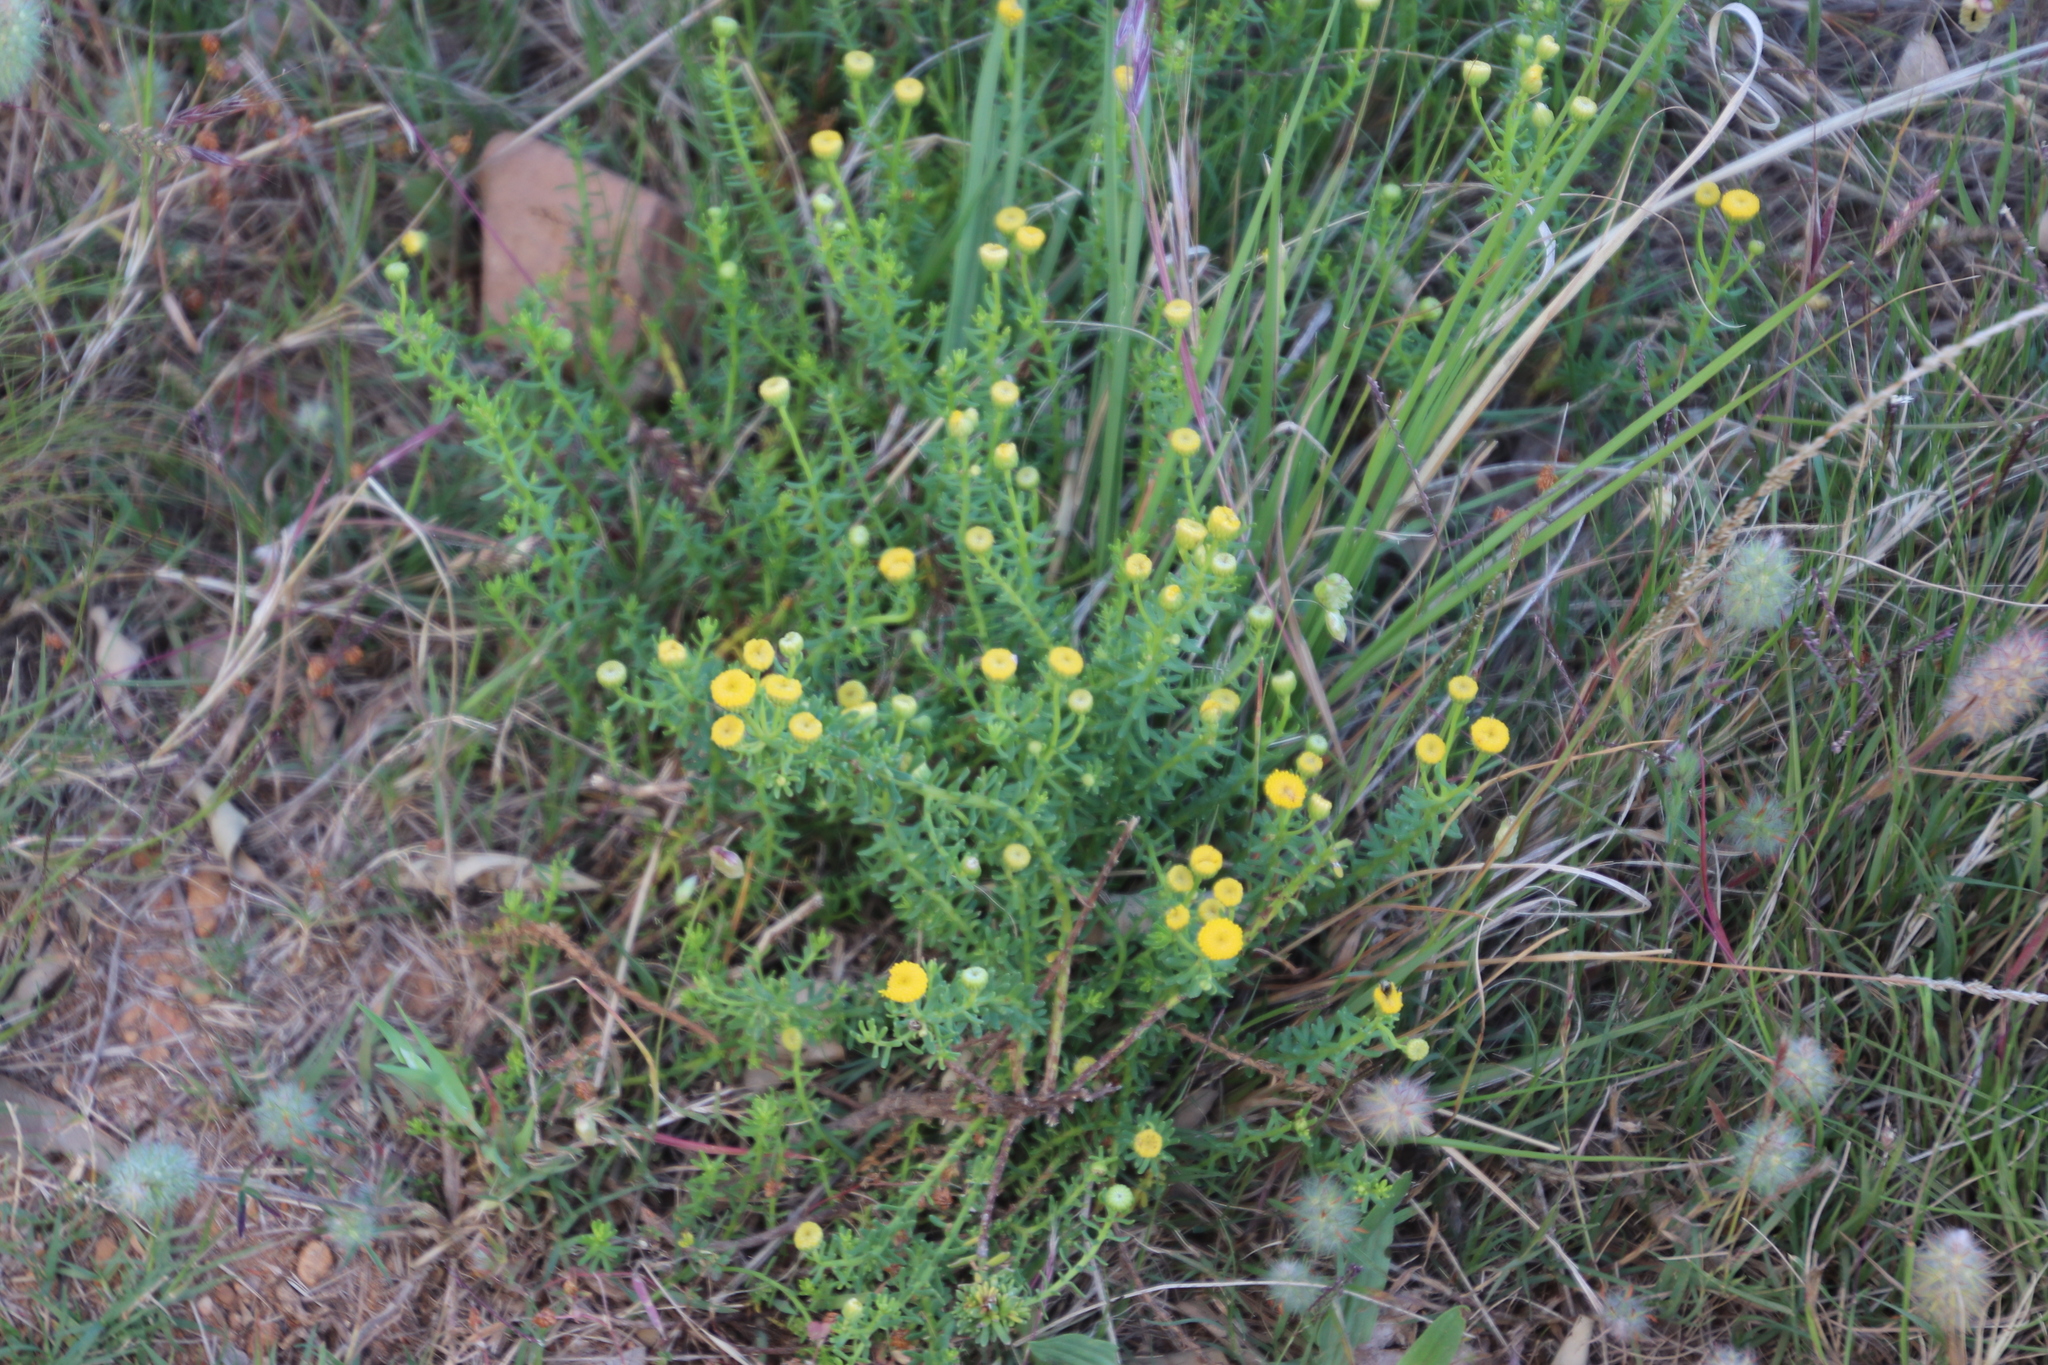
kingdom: Plantae
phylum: Tracheophyta
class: Magnoliopsida
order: Asterales
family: Asteraceae
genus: Chrysocoma
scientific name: Chrysocoma cernua
